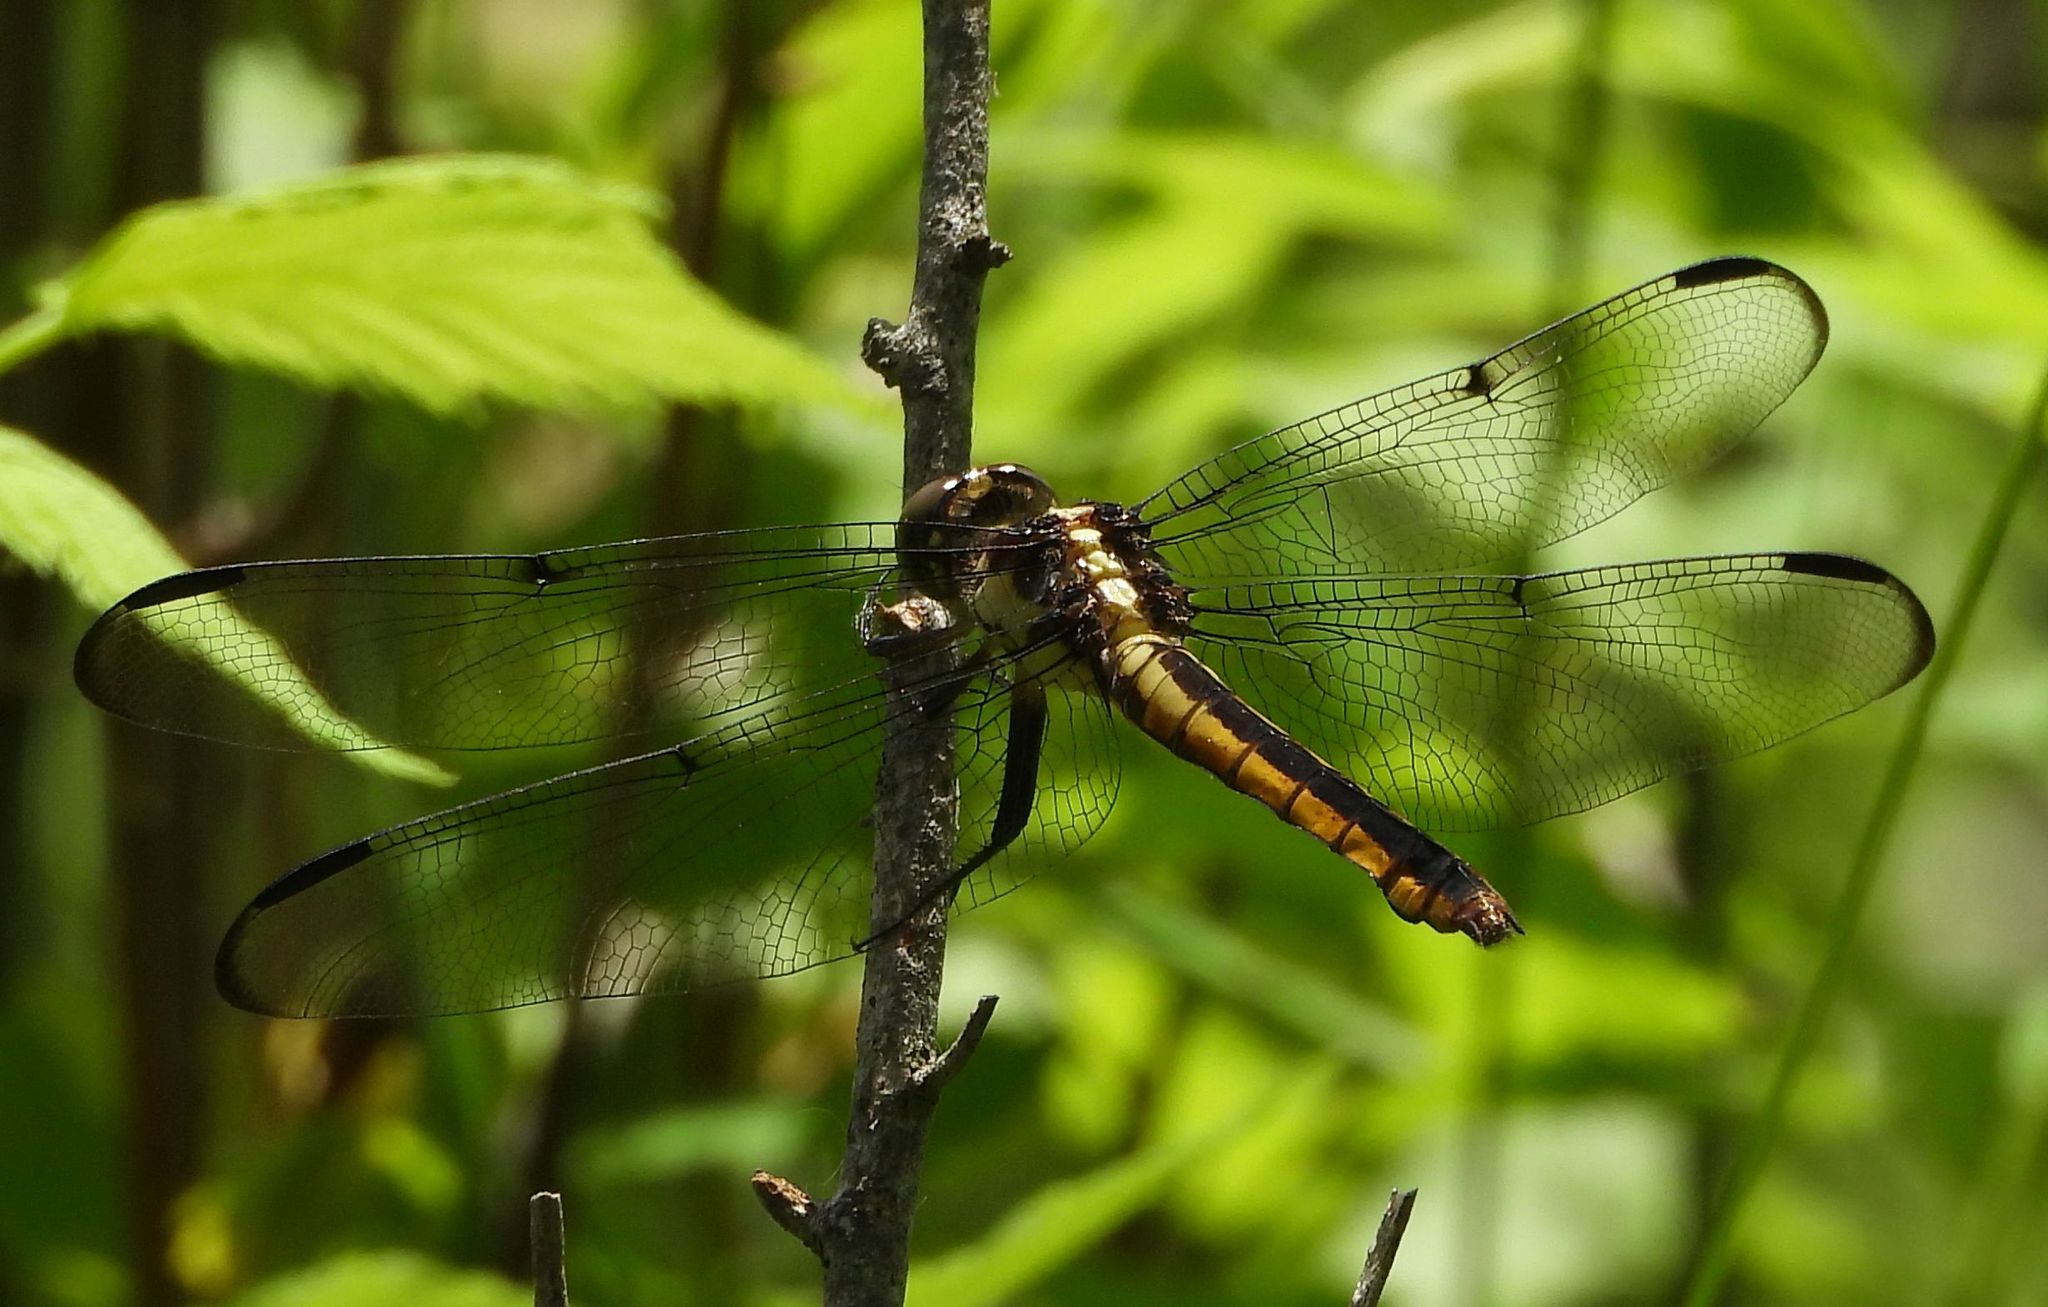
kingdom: Animalia
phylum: Arthropoda
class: Insecta
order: Odonata
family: Libellulidae
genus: Libellula
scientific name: Libellula incesta
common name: Slaty skimmer
